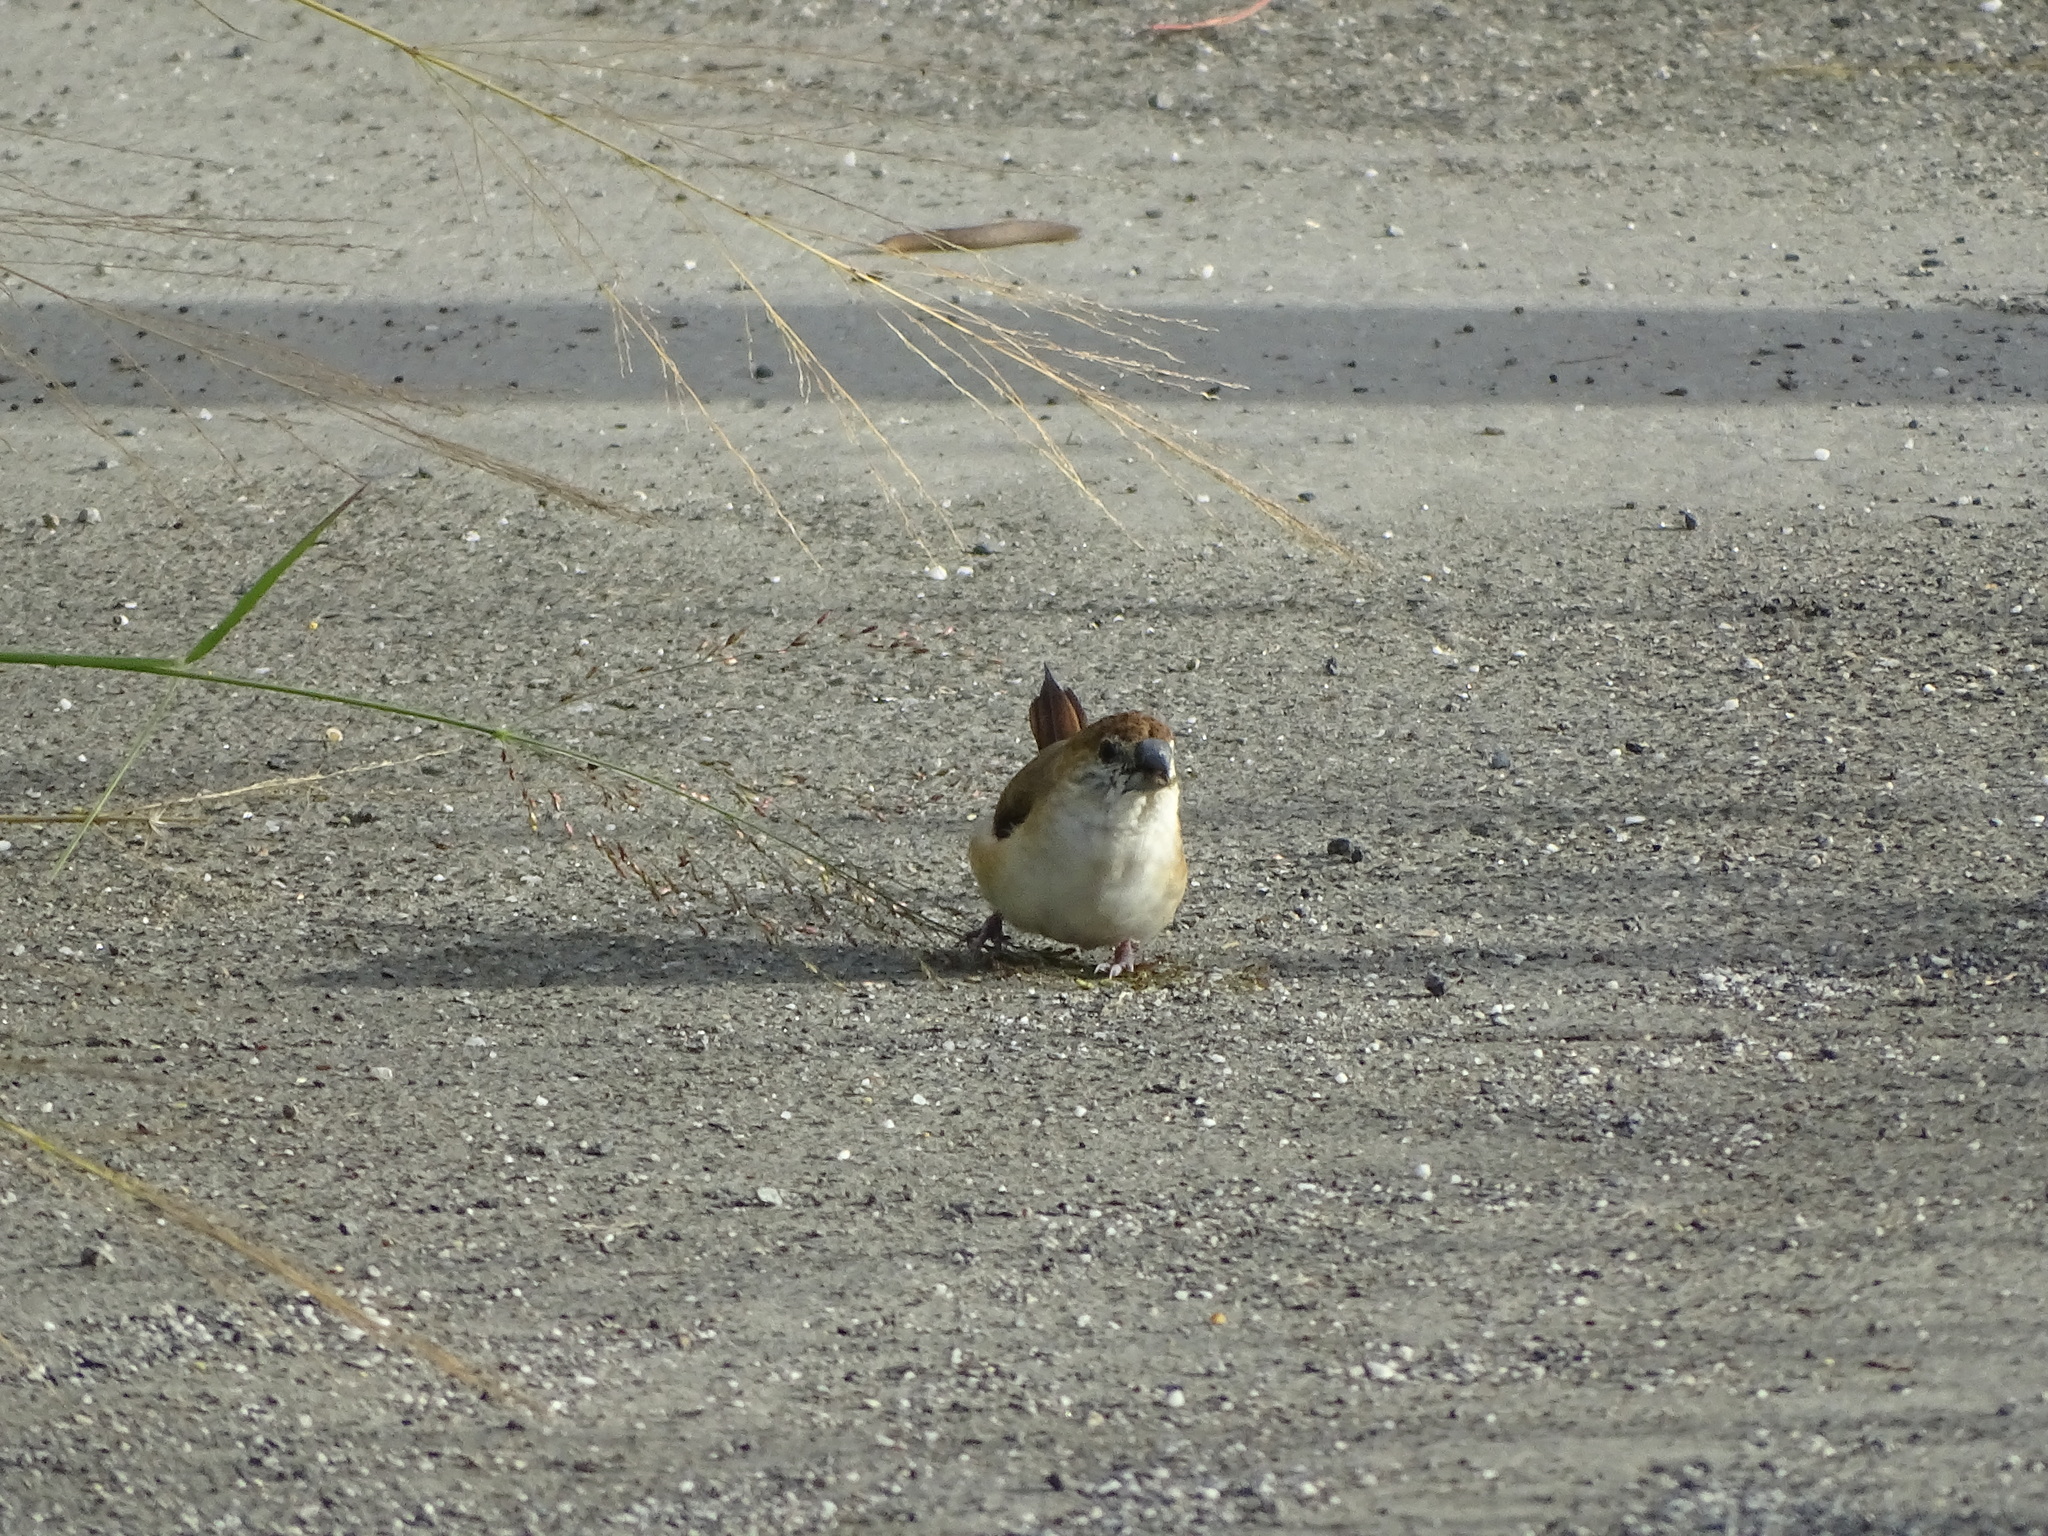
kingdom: Animalia
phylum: Chordata
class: Aves
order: Passeriformes
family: Estrildidae
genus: Euodice
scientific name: Euodice malabarica
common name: Indian silverbill
